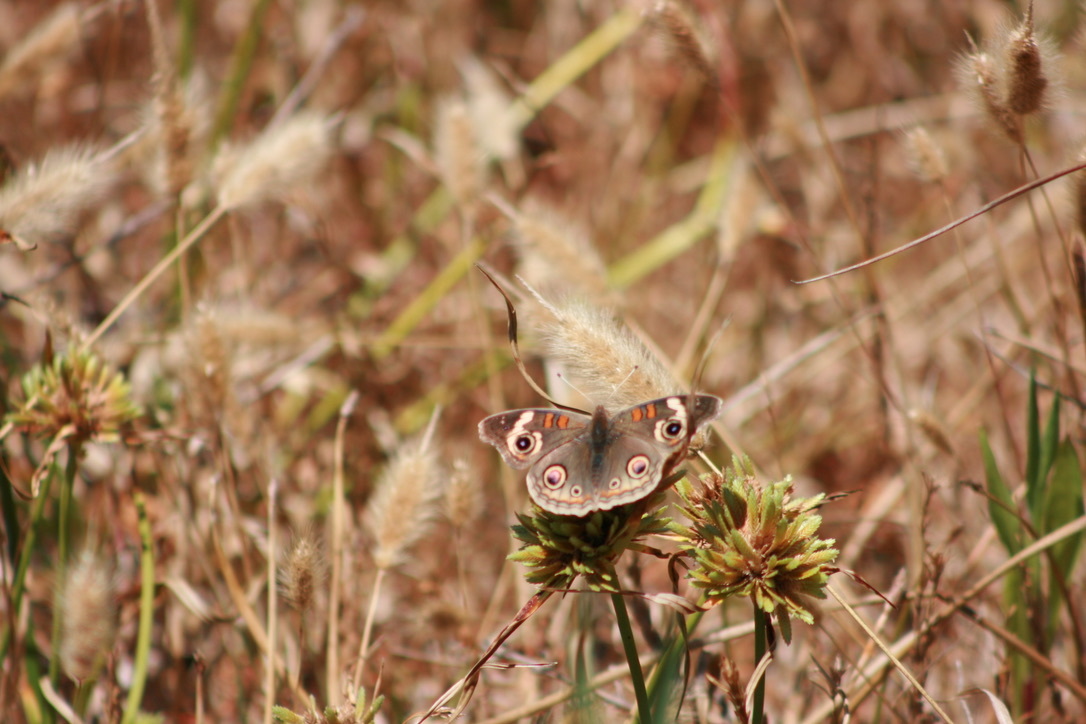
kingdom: Animalia
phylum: Arthropoda
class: Insecta
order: Lepidoptera
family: Nymphalidae
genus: Junonia
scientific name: Junonia grisea
